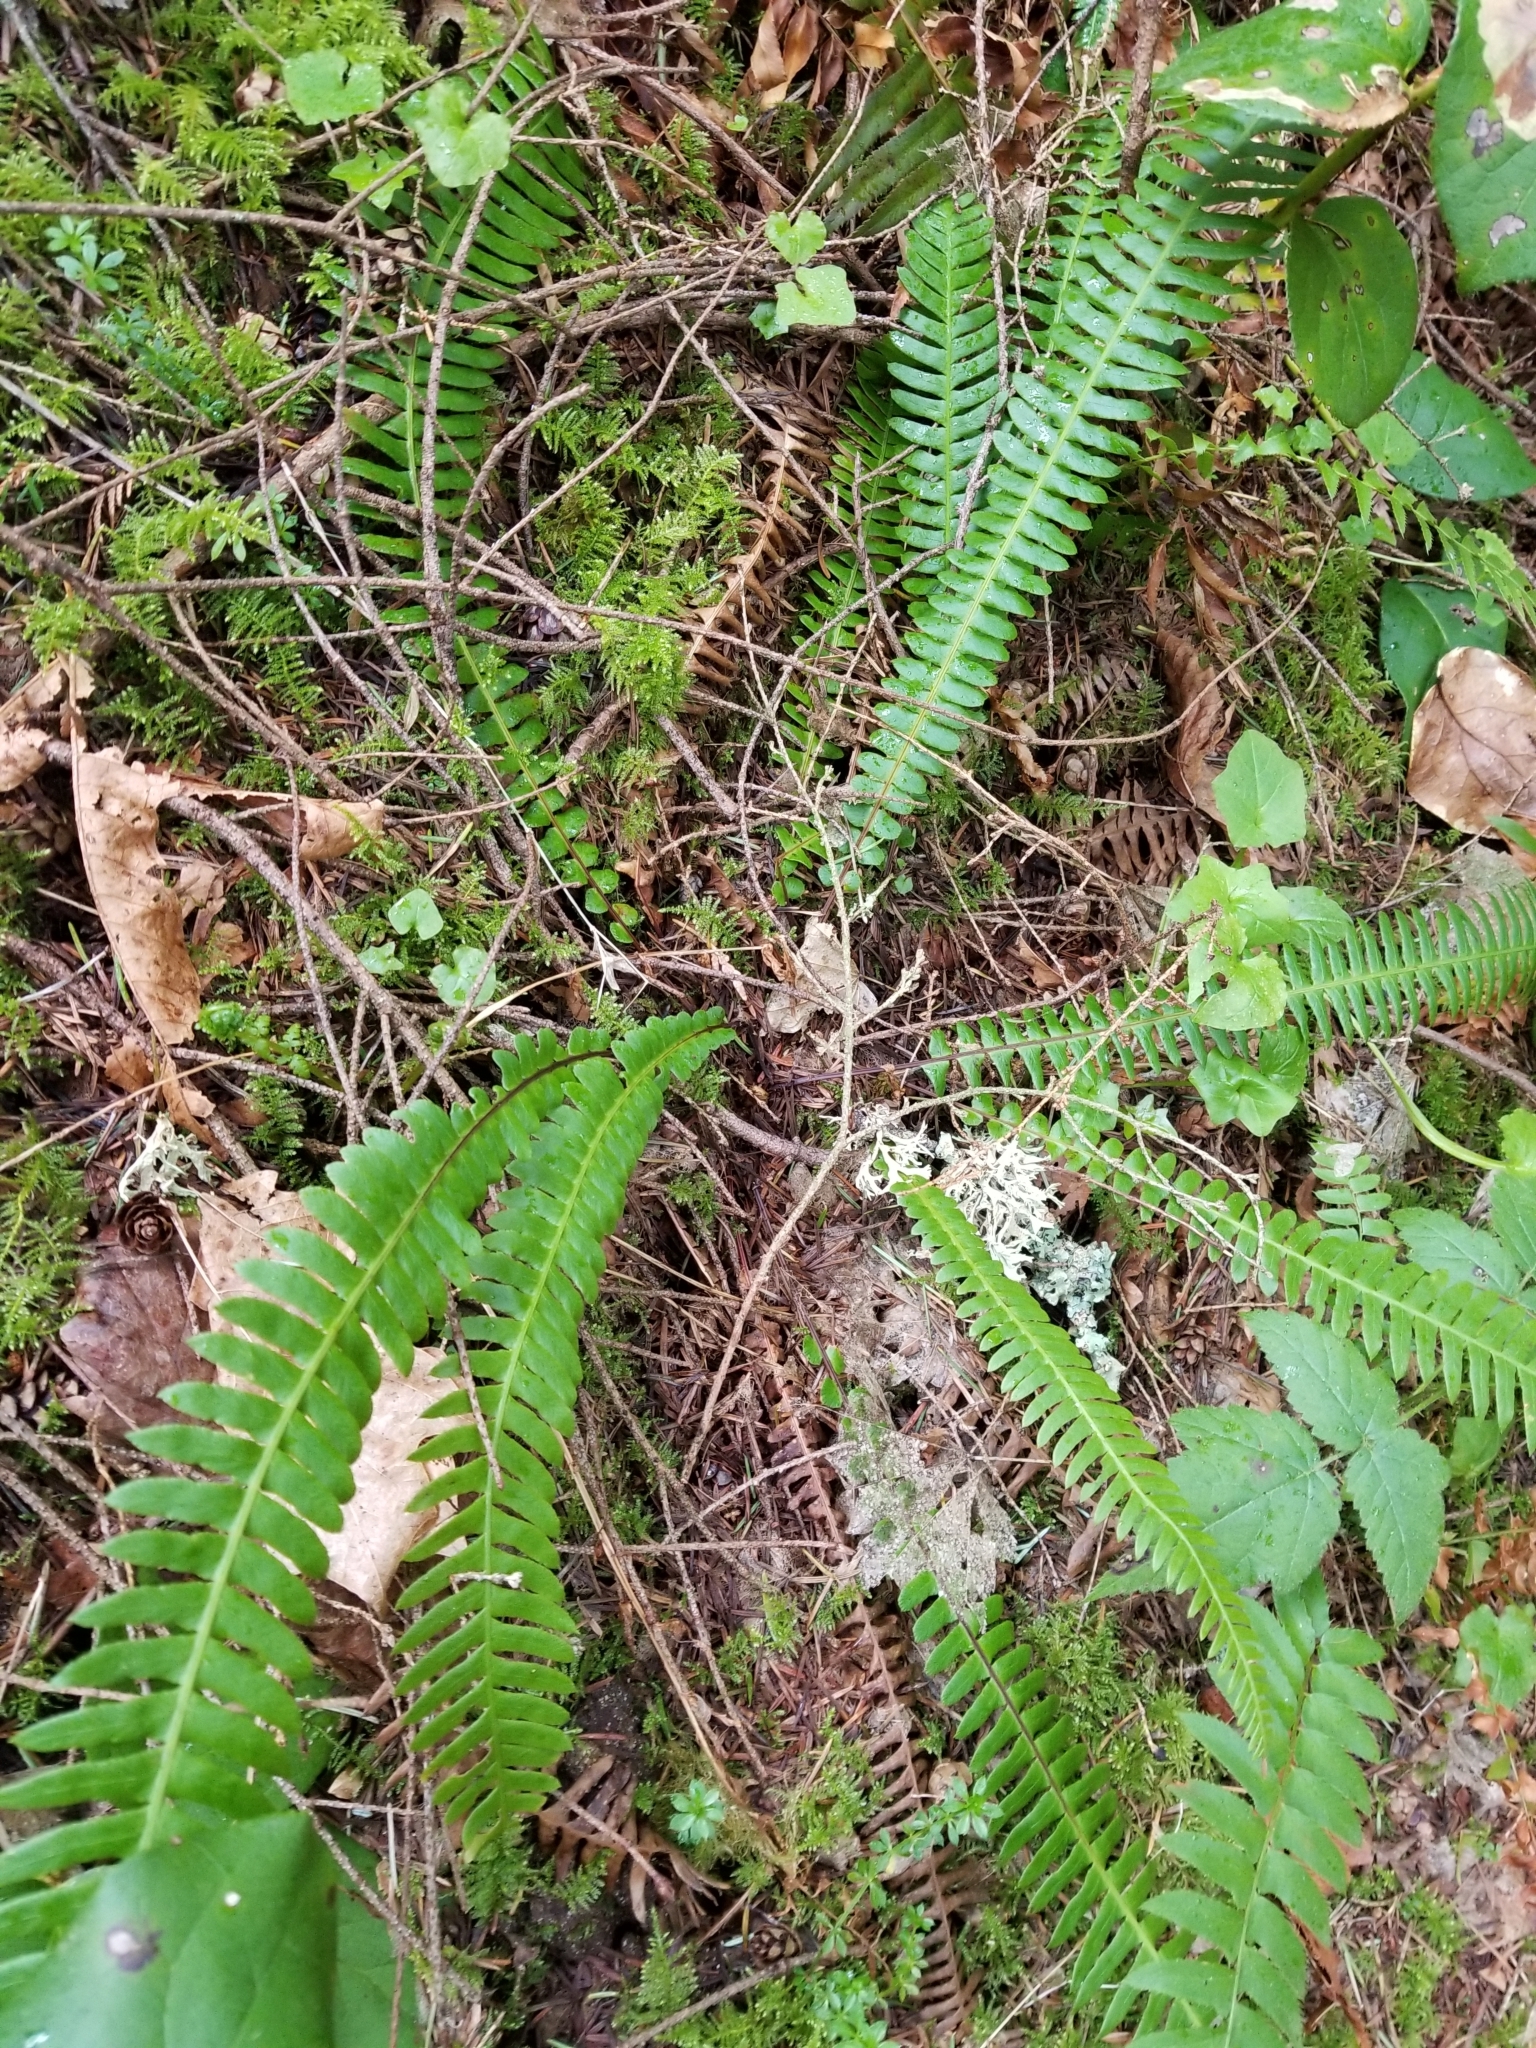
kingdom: Plantae
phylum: Tracheophyta
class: Polypodiopsida
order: Polypodiales
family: Blechnaceae
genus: Struthiopteris
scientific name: Struthiopteris spicant
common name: Deer fern
